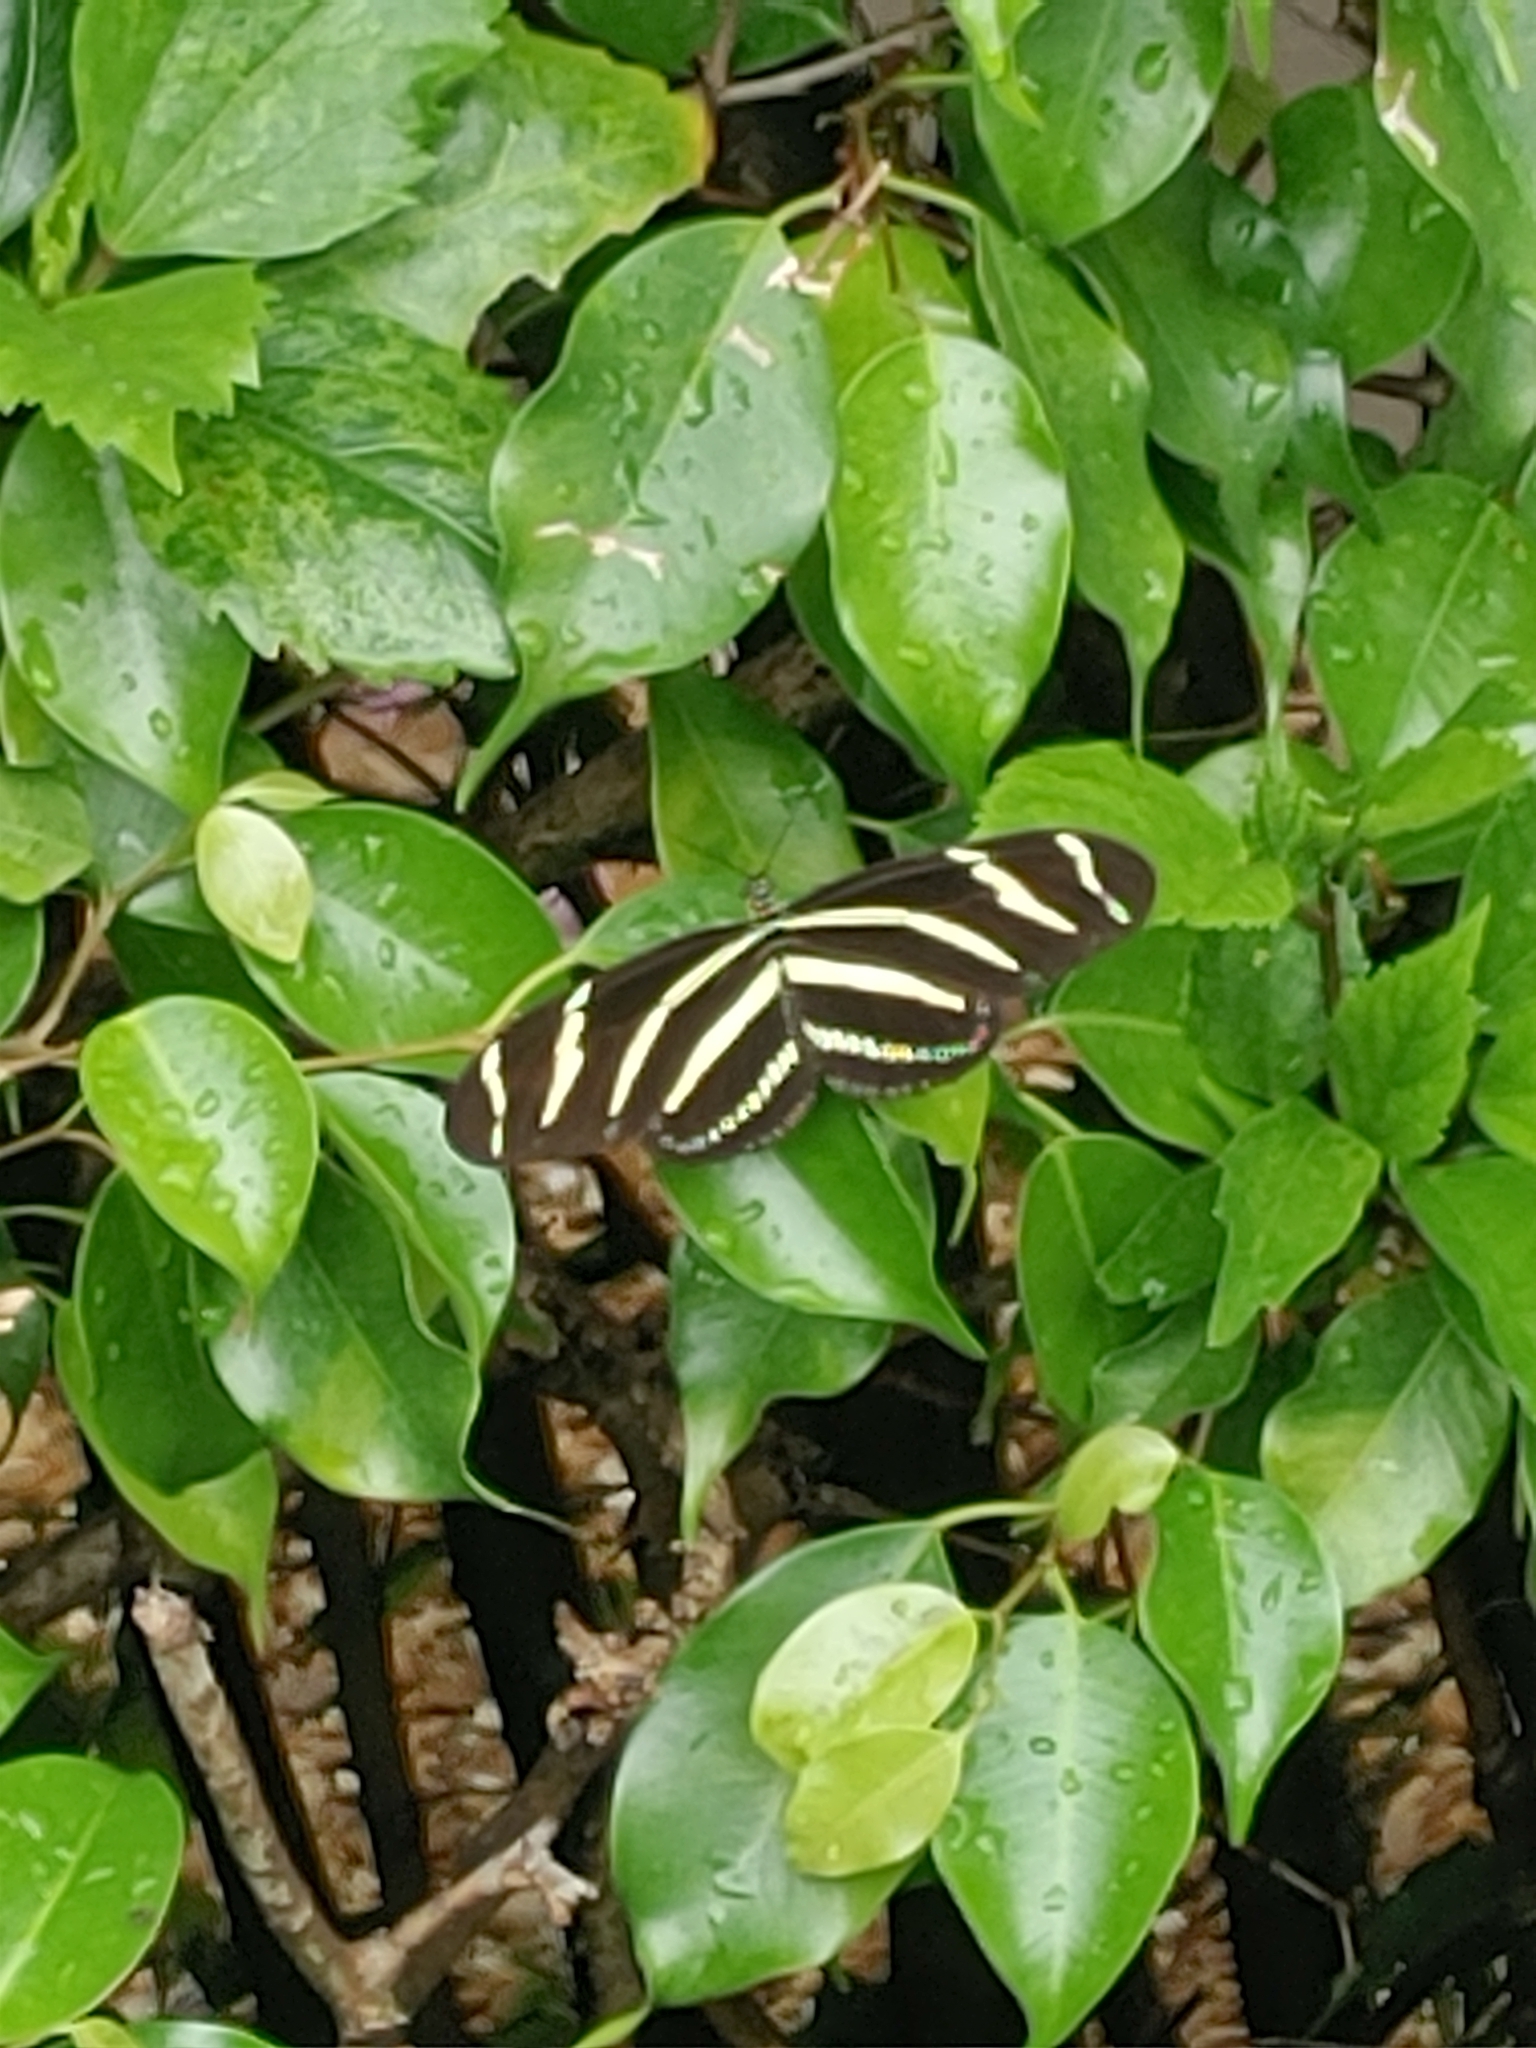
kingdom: Animalia
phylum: Arthropoda
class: Insecta
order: Lepidoptera
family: Nymphalidae
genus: Heliconius
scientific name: Heliconius charithonia
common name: Zebra long wing
